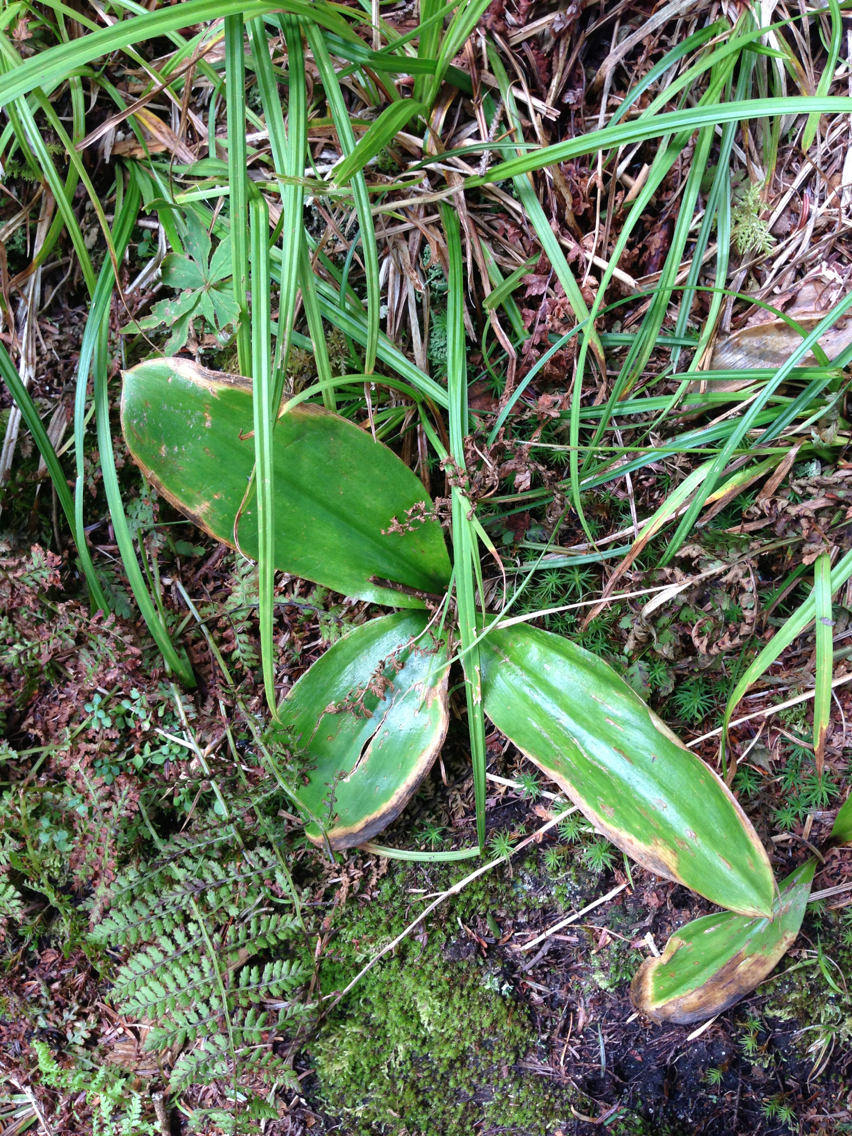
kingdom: Plantae
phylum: Tracheophyta
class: Liliopsida
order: Liliales
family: Liliaceae
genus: Clintonia
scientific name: Clintonia borealis
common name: Yellow clintonia
